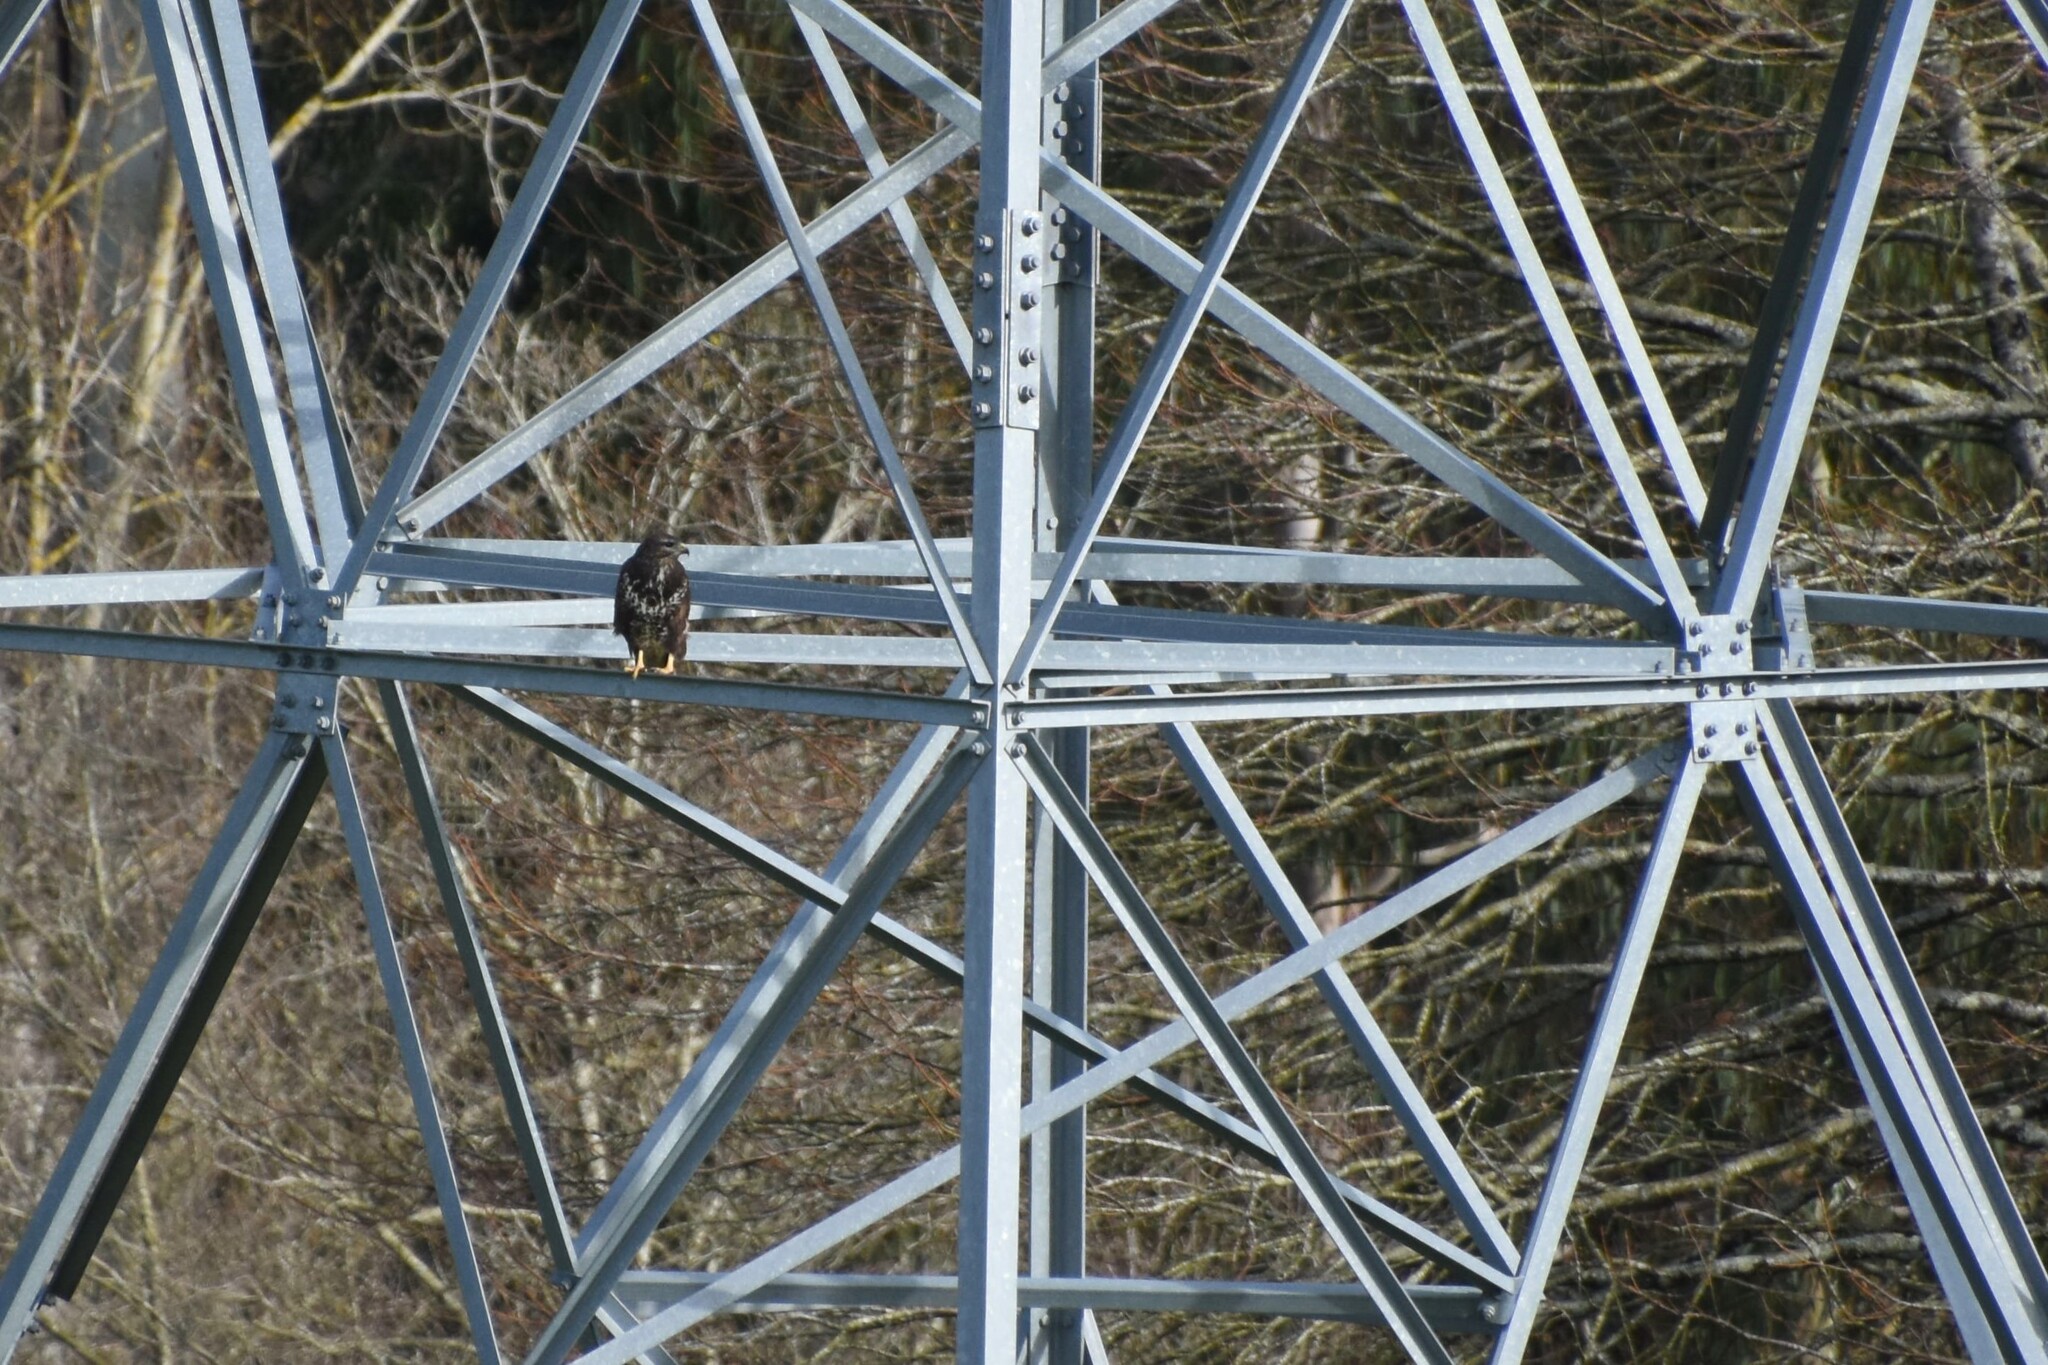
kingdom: Animalia
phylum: Chordata
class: Aves
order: Accipitriformes
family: Accipitridae
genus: Buteo
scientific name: Buteo buteo
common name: Common buzzard
